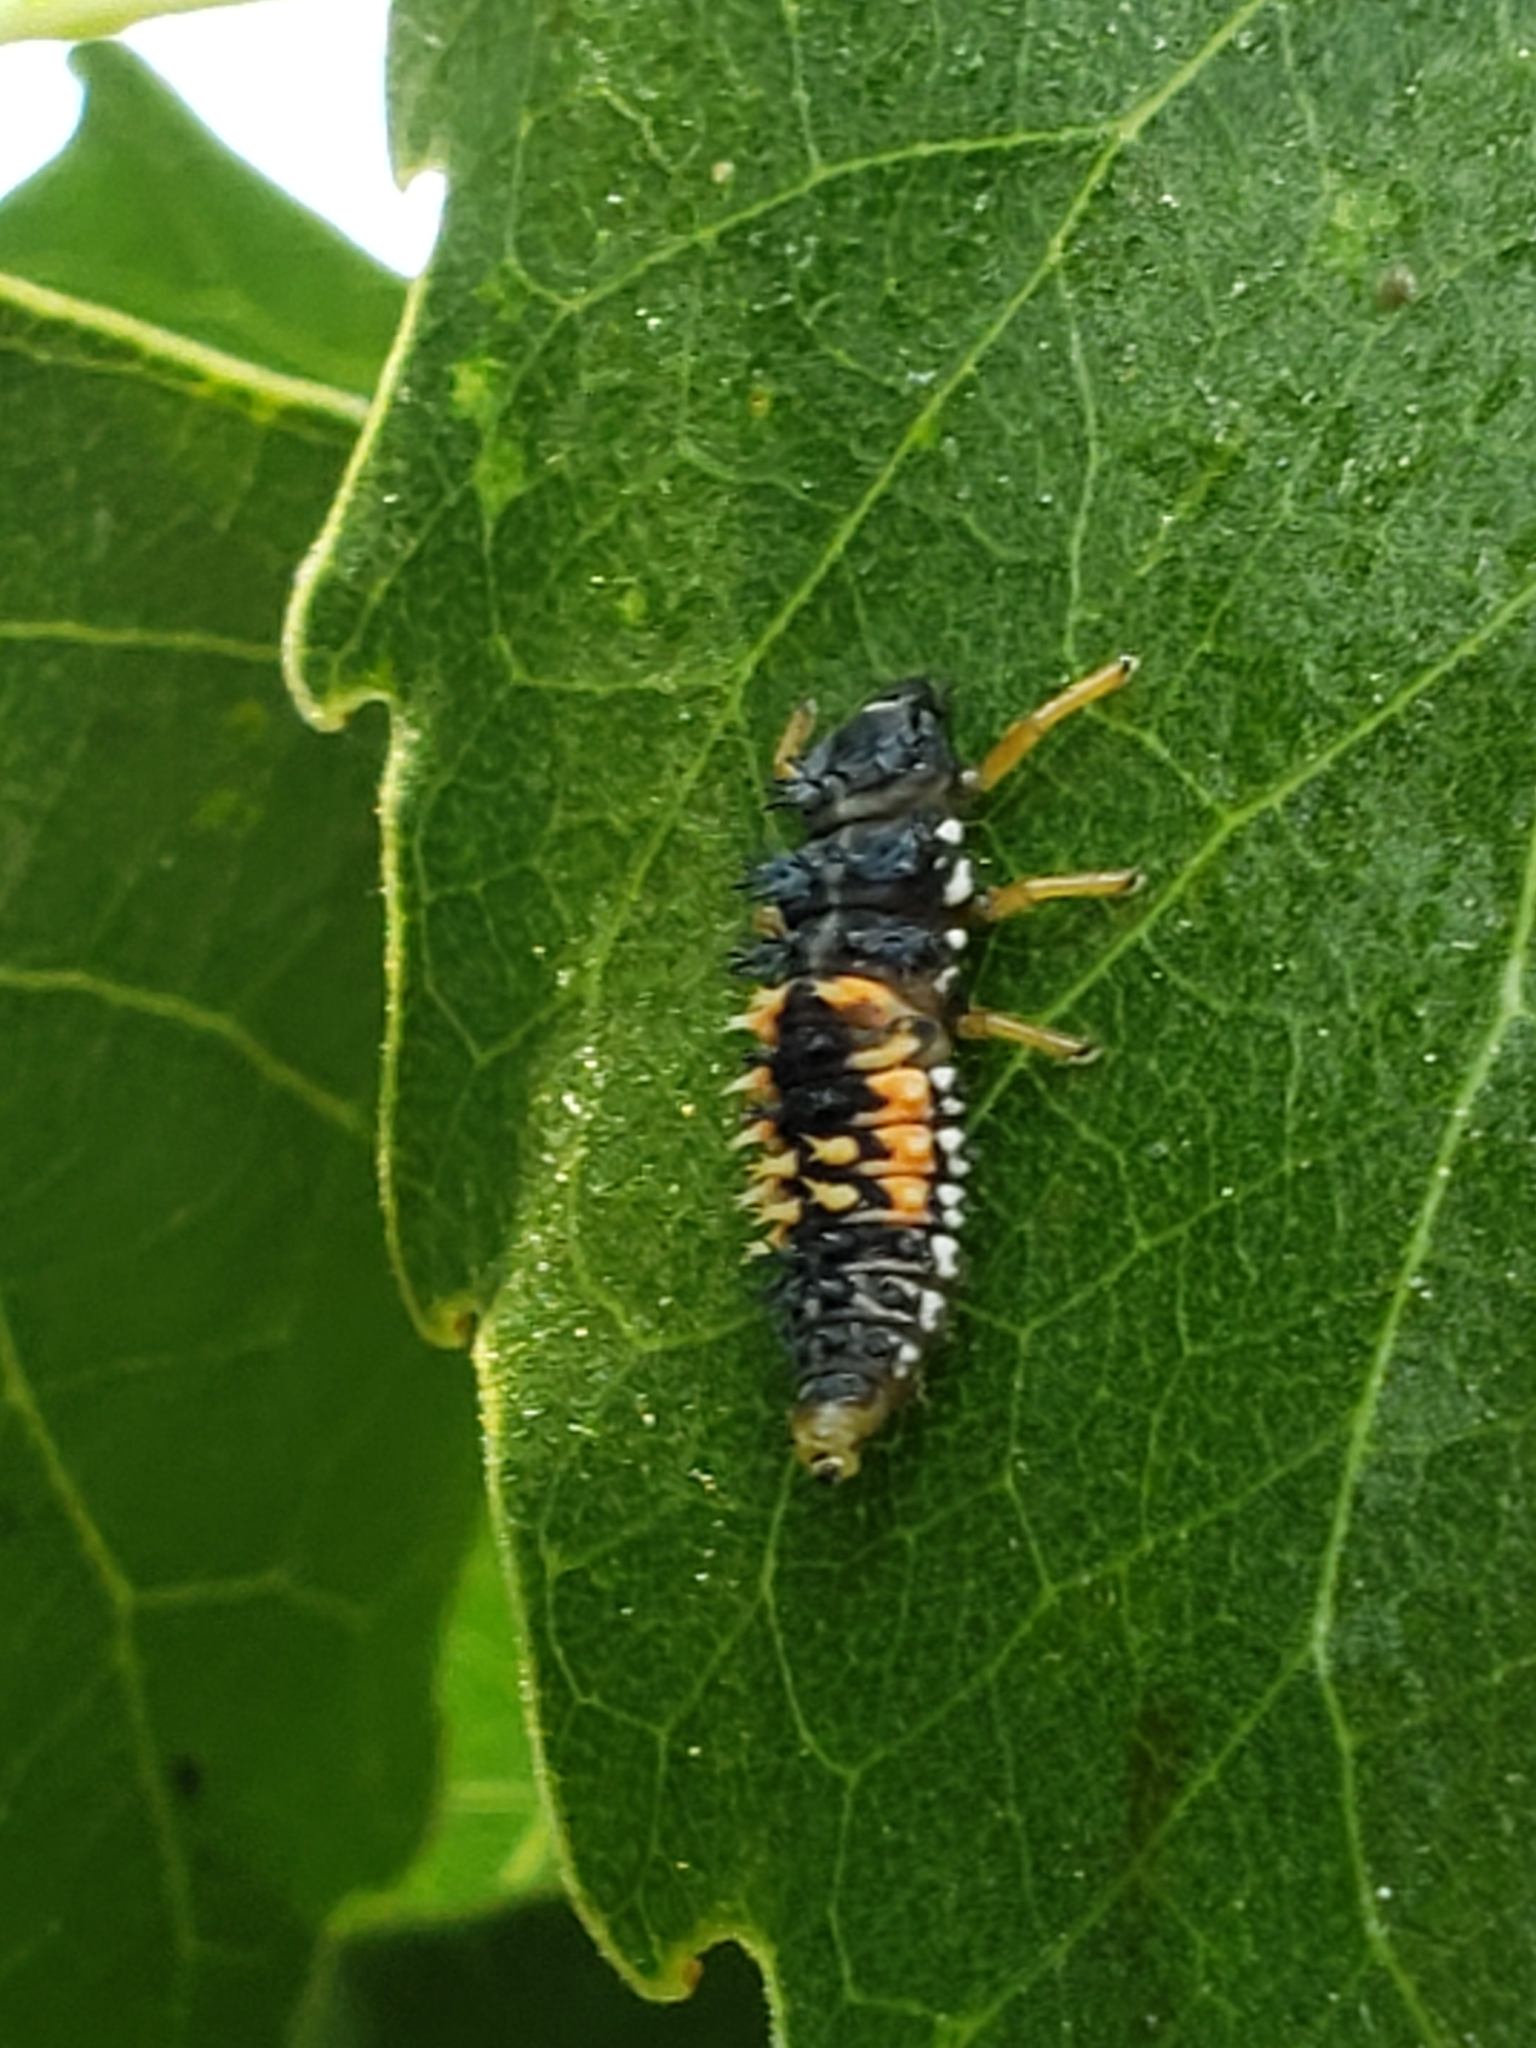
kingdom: Animalia
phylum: Arthropoda
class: Insecta
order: Coleoptera
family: Coccinellidae
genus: Harmonia
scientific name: Harmonia axyridis
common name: Harlequin ladybird
